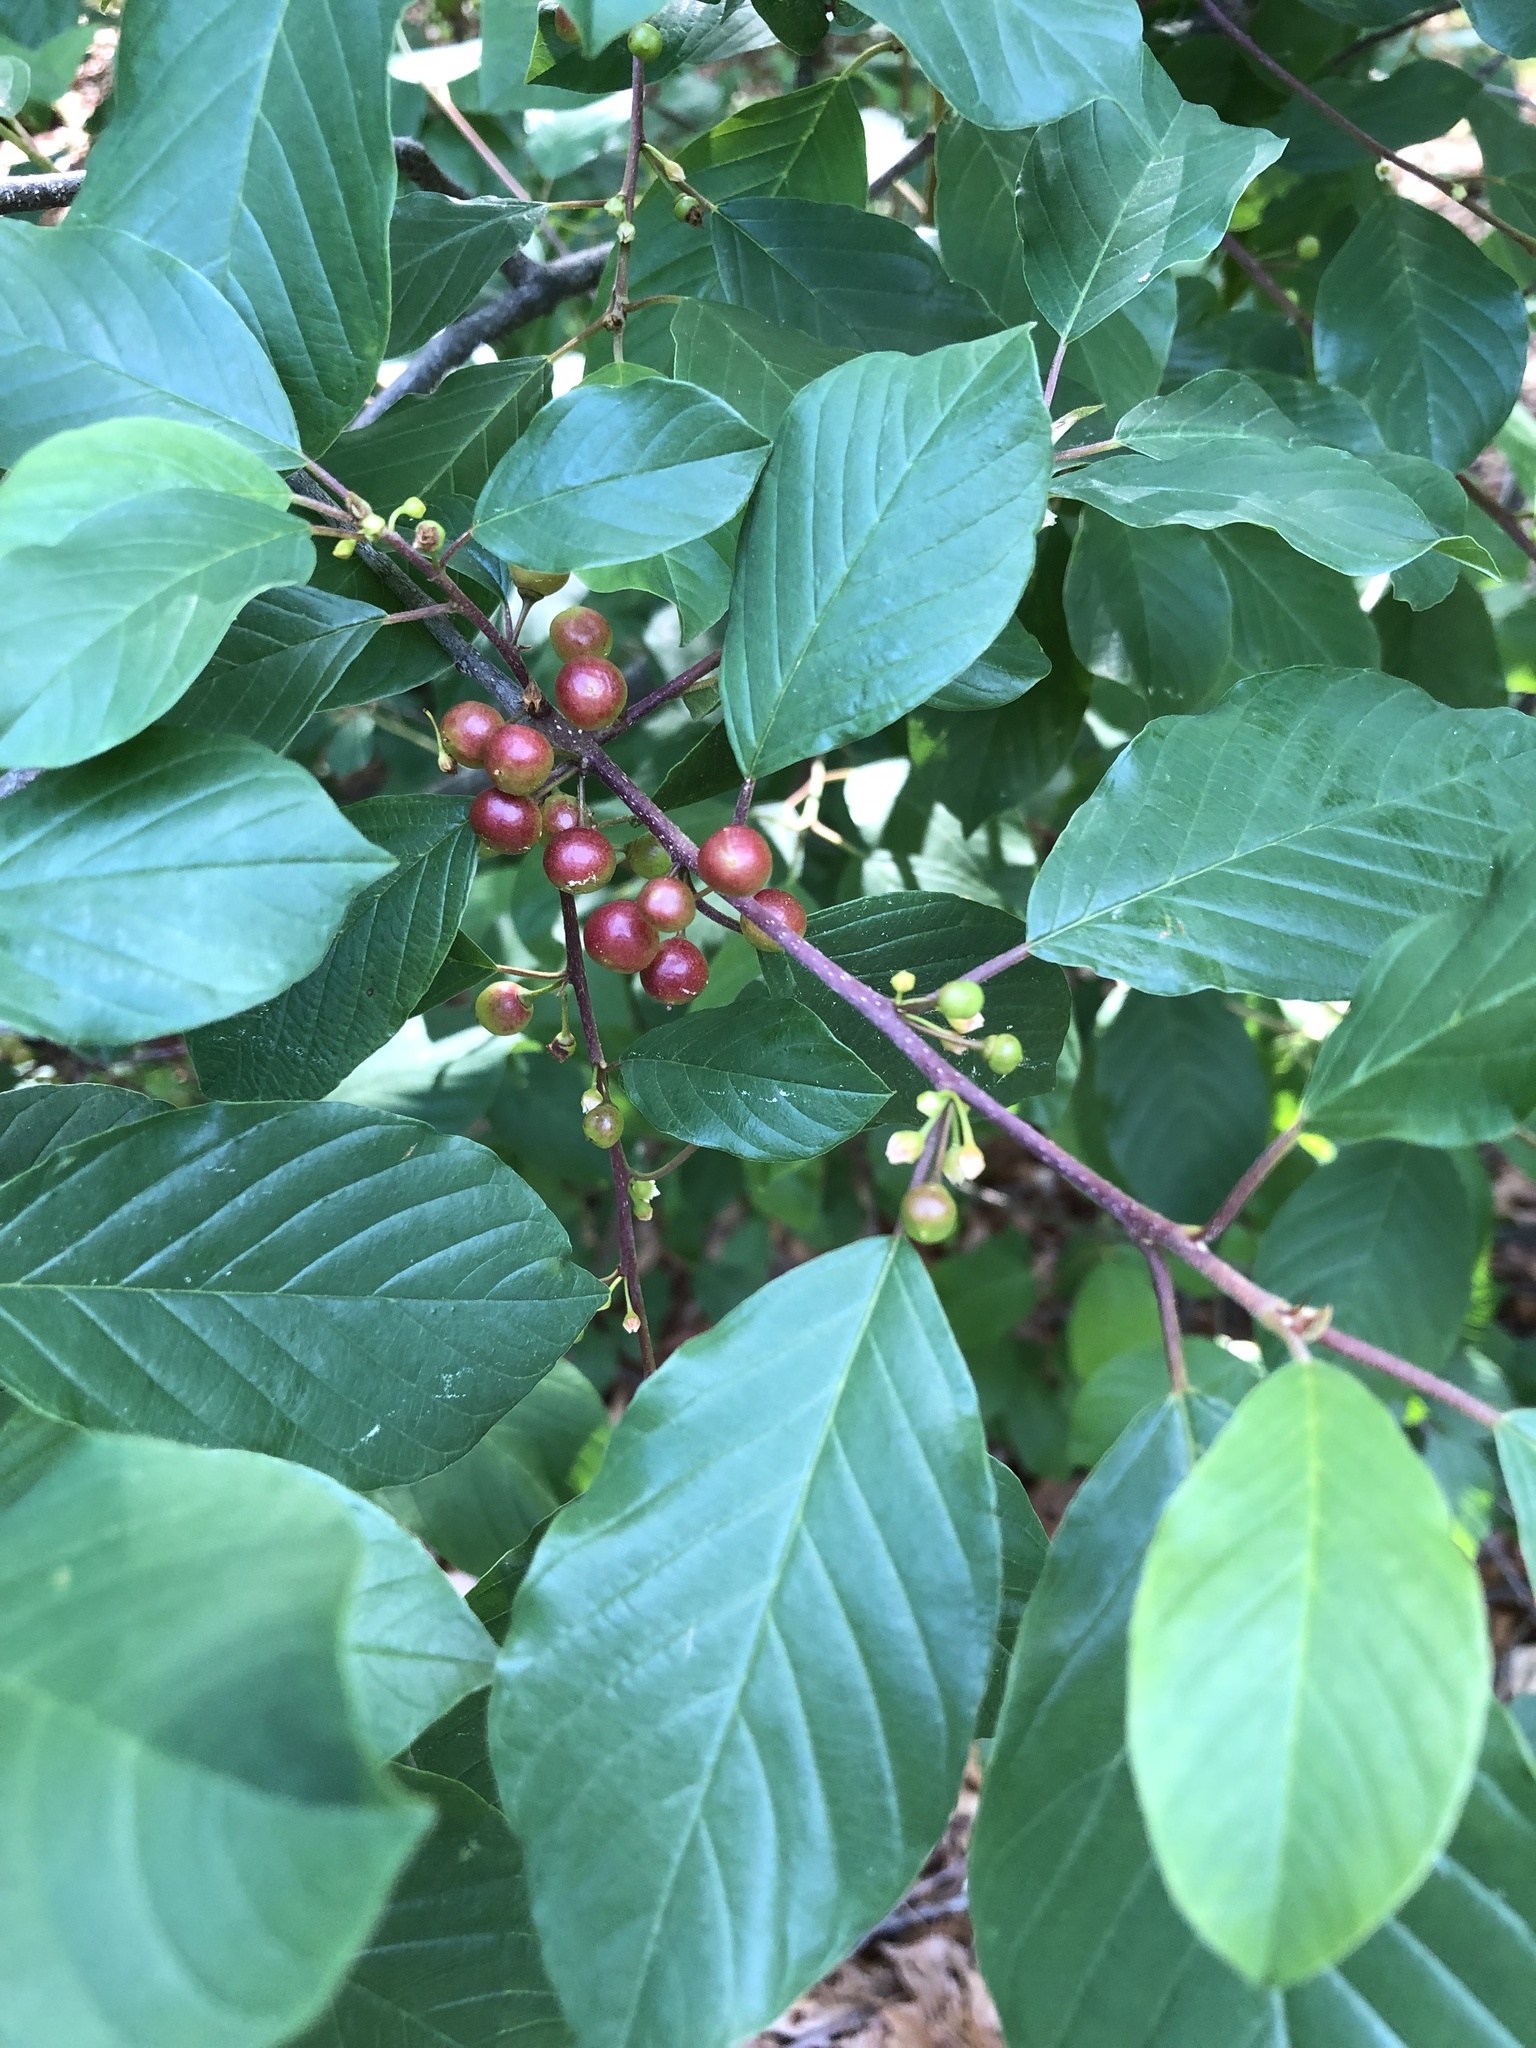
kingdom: Plantae
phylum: Tracheophyta
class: Magnoliopsida
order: Rosales
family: Rhamnaceae
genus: Frangula
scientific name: Frangula alnus
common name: Alder buckthorn
